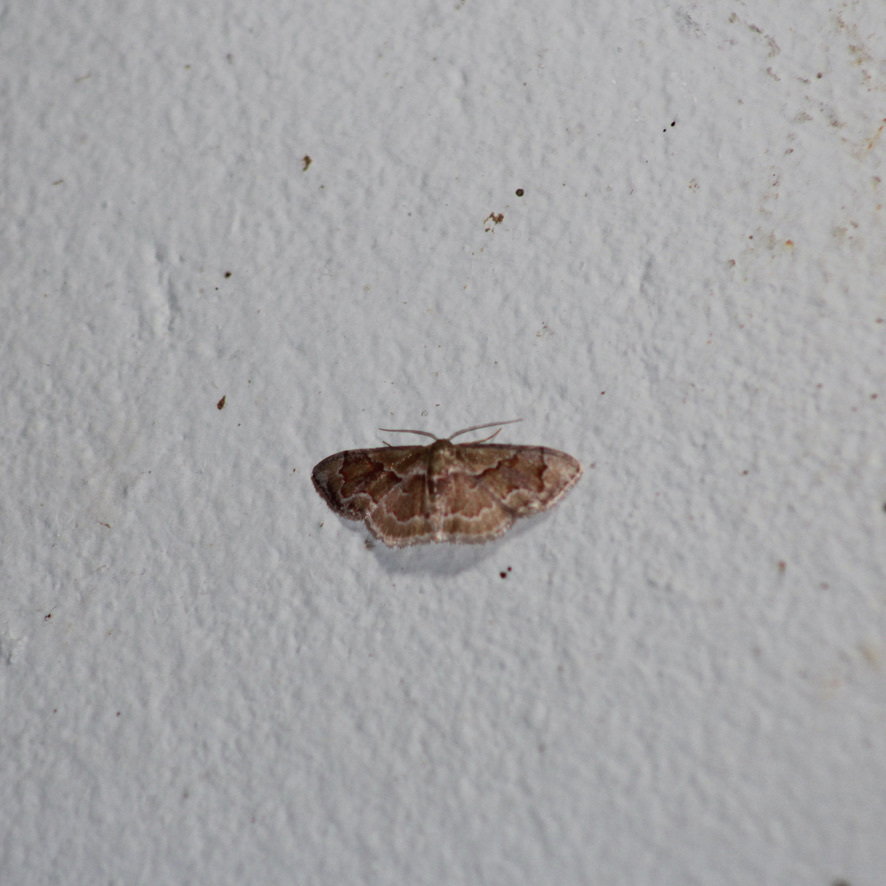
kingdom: Animalia
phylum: Arthropoda
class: Insecta
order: Lepidoptera
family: Geometridae
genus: Leptostales
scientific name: Leptostales adela
